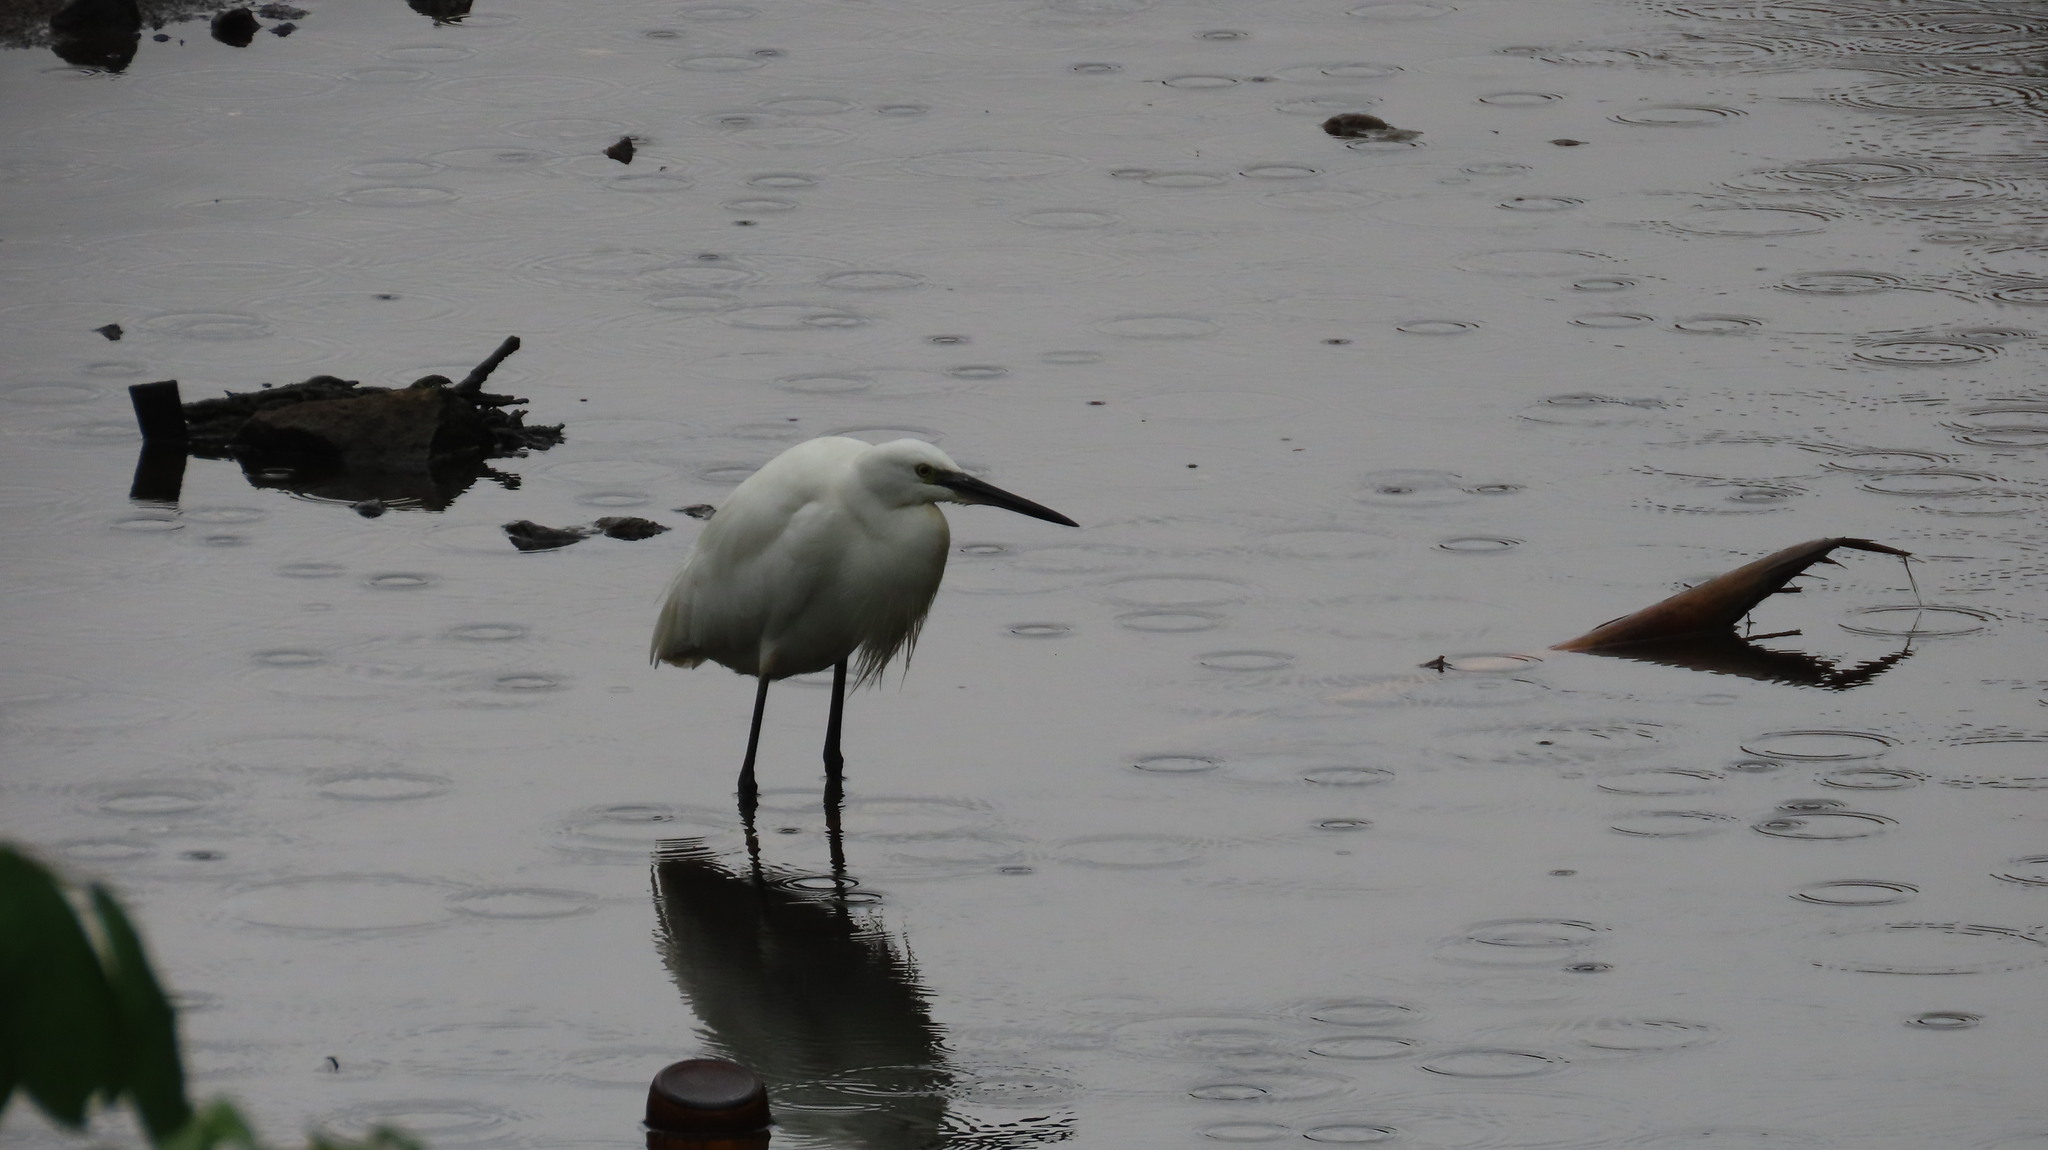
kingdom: Animalia
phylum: Chordata
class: Aves
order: Pelecaniformes
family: Ardeidae
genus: Egretta
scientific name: Egretta garzetta
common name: Little egret
